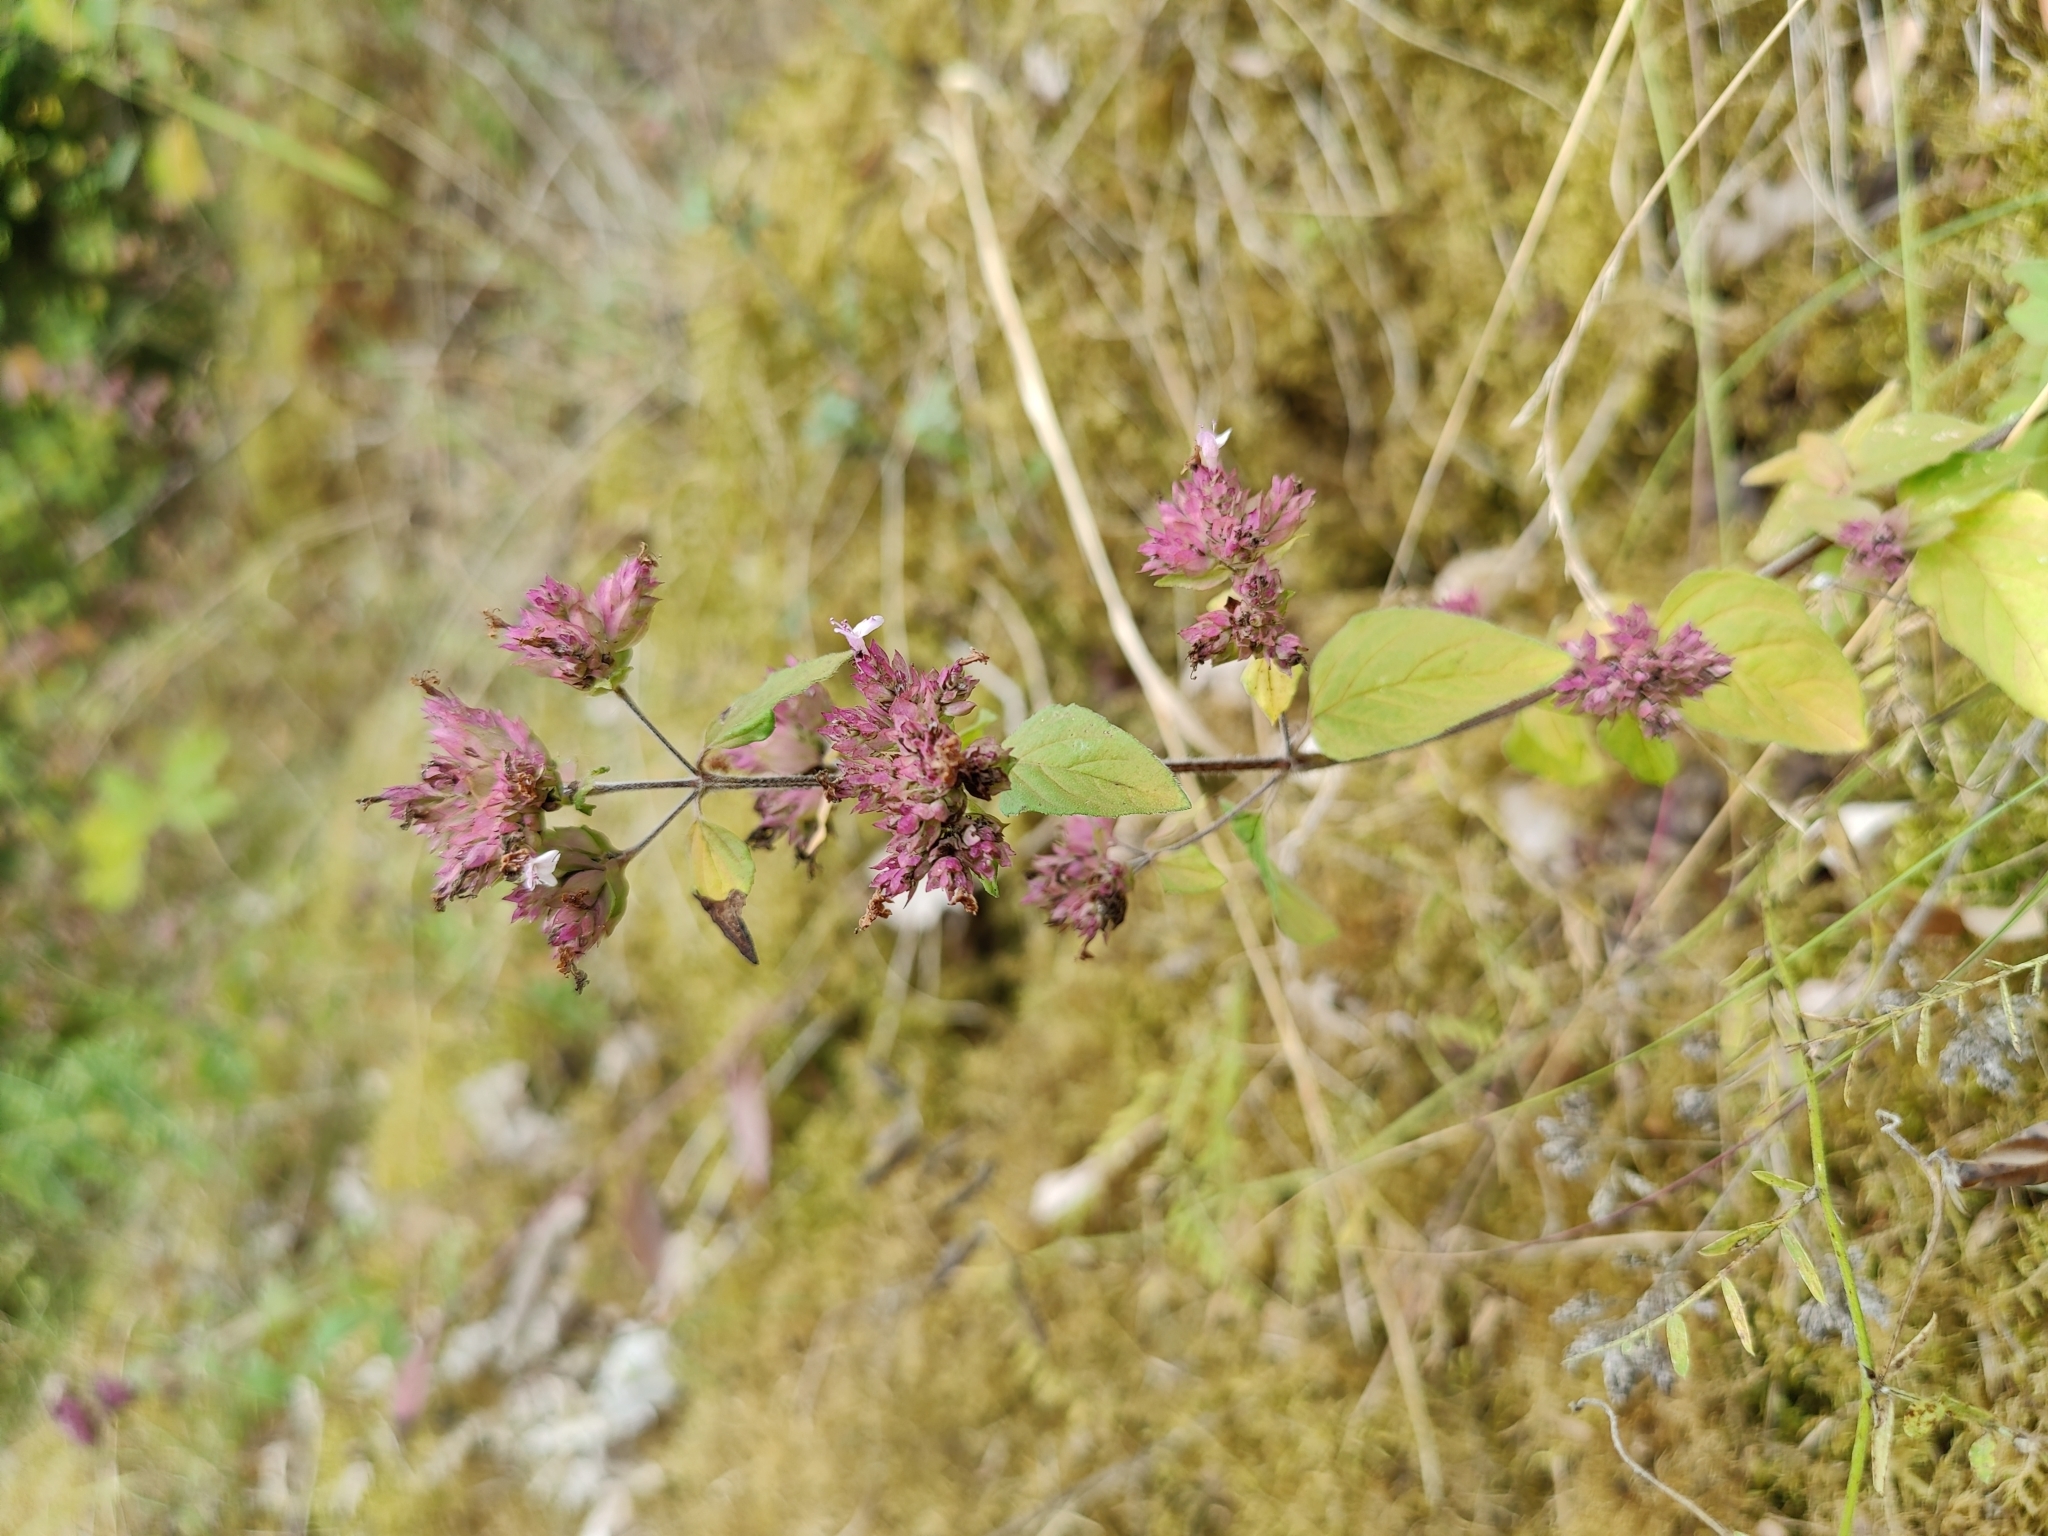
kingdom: Plantae
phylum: Tracheophyta
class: Magnoliopsida
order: Lamiales
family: Lamiaceae
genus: Origanum
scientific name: Origanum vulgare
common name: Wild marjoram
